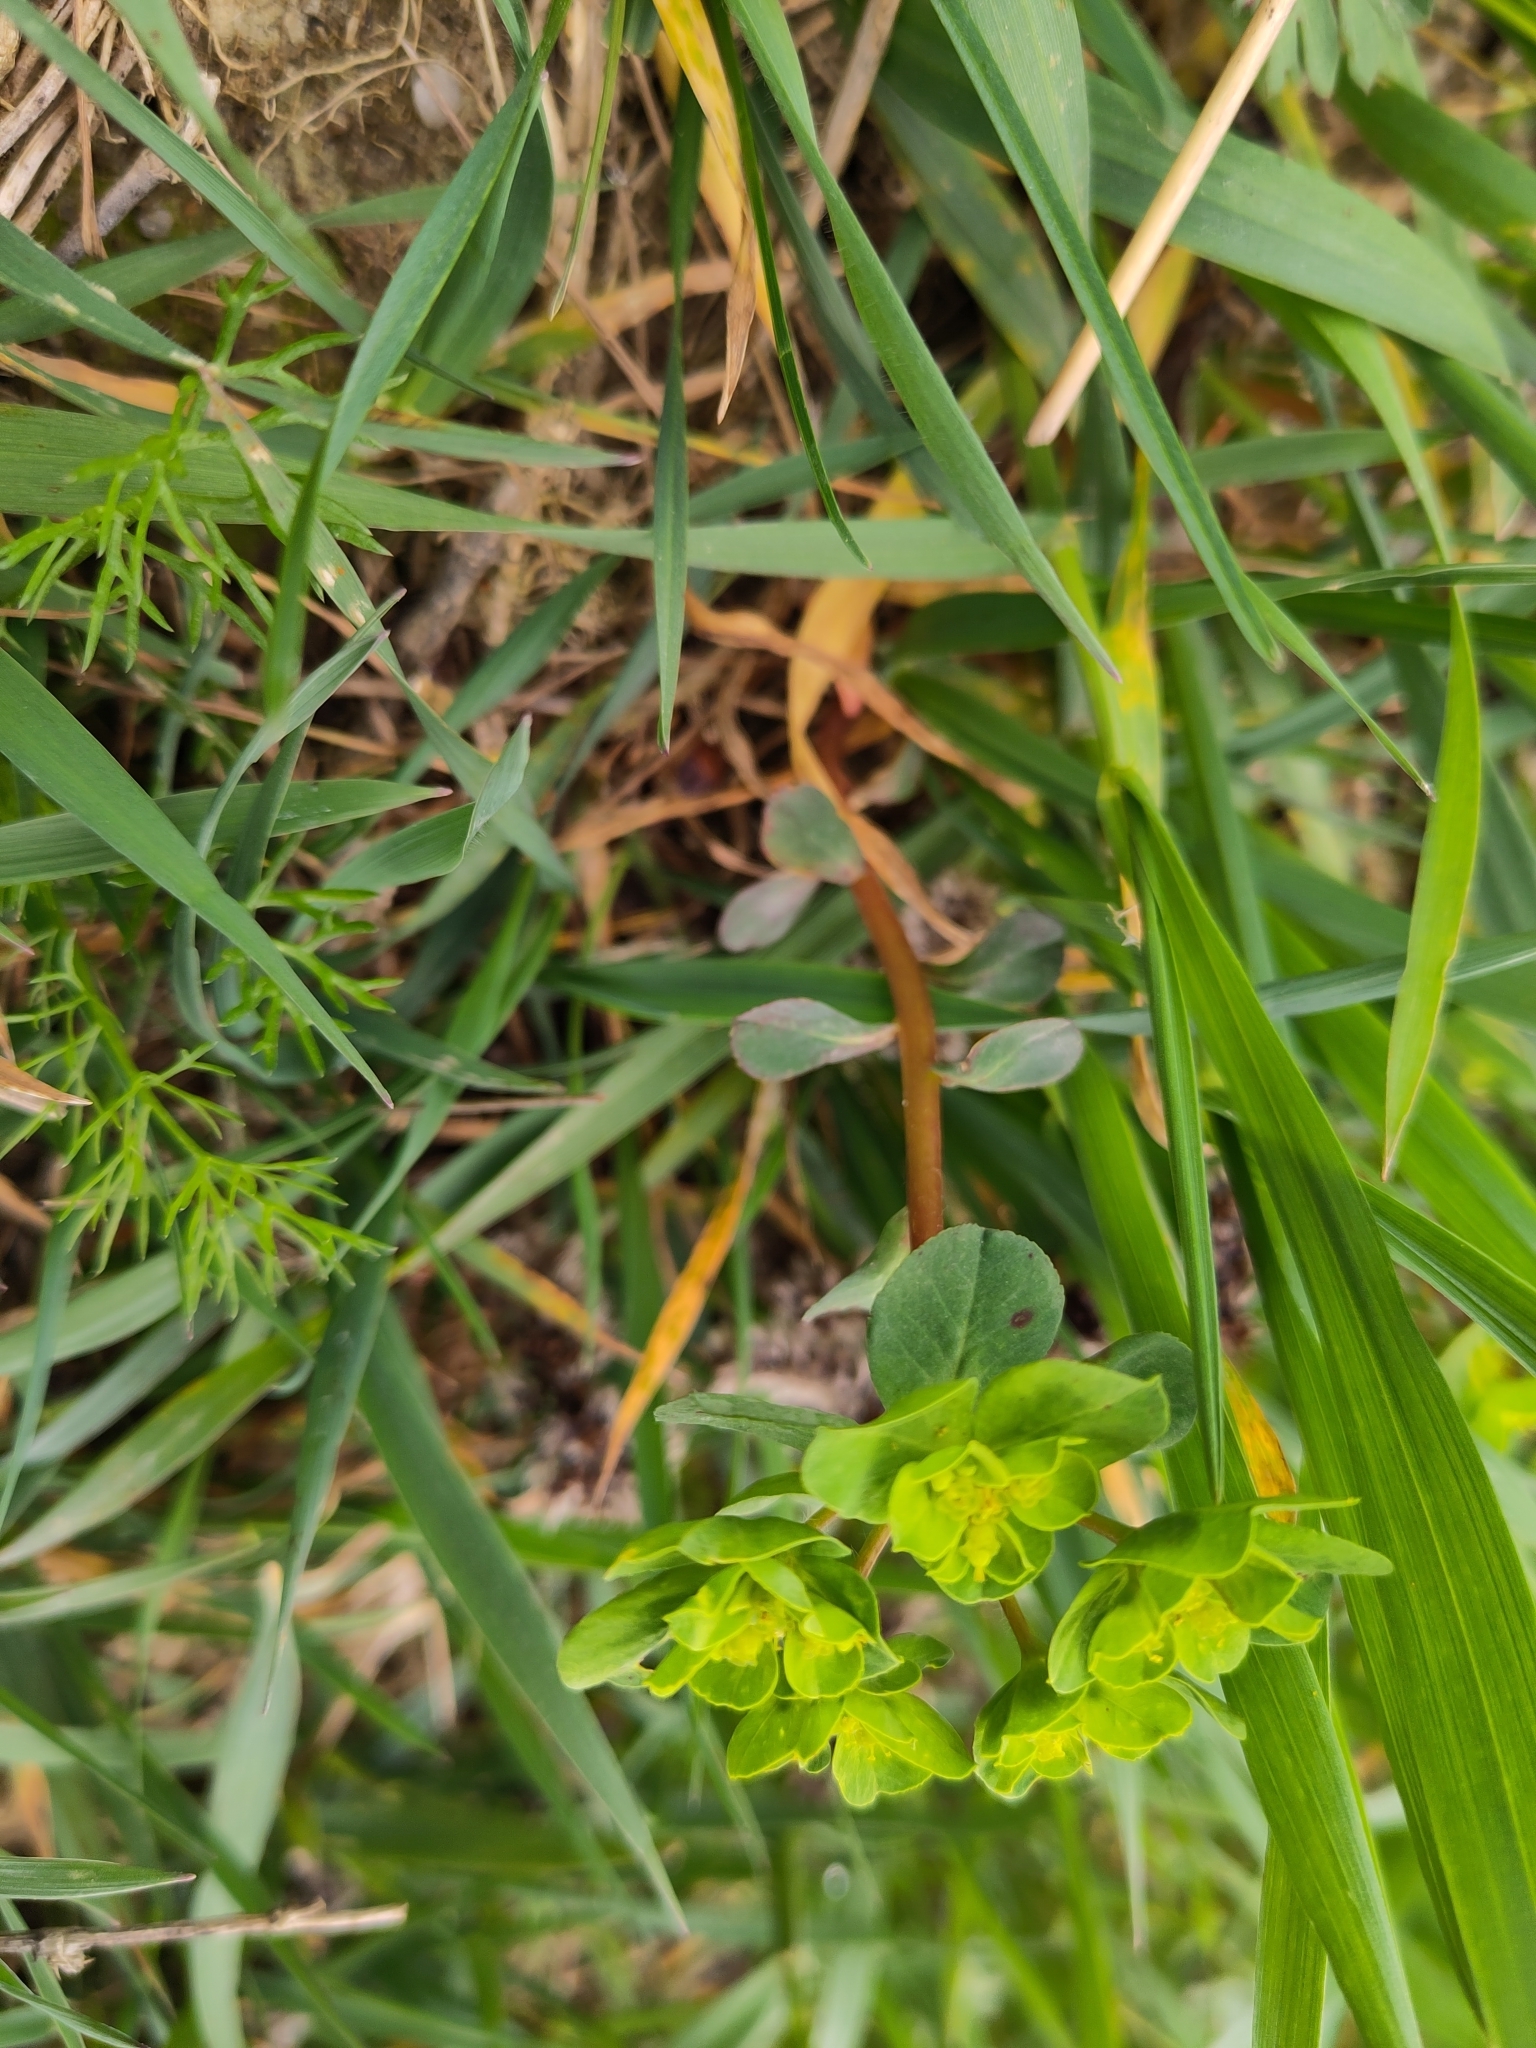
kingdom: Plantae
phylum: Tracheophyta
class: Magnoliopsida
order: Malpighiales
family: Euphorbiaceae
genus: Euphorbia
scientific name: Euphorbia helioscopia
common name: Sun spurge
